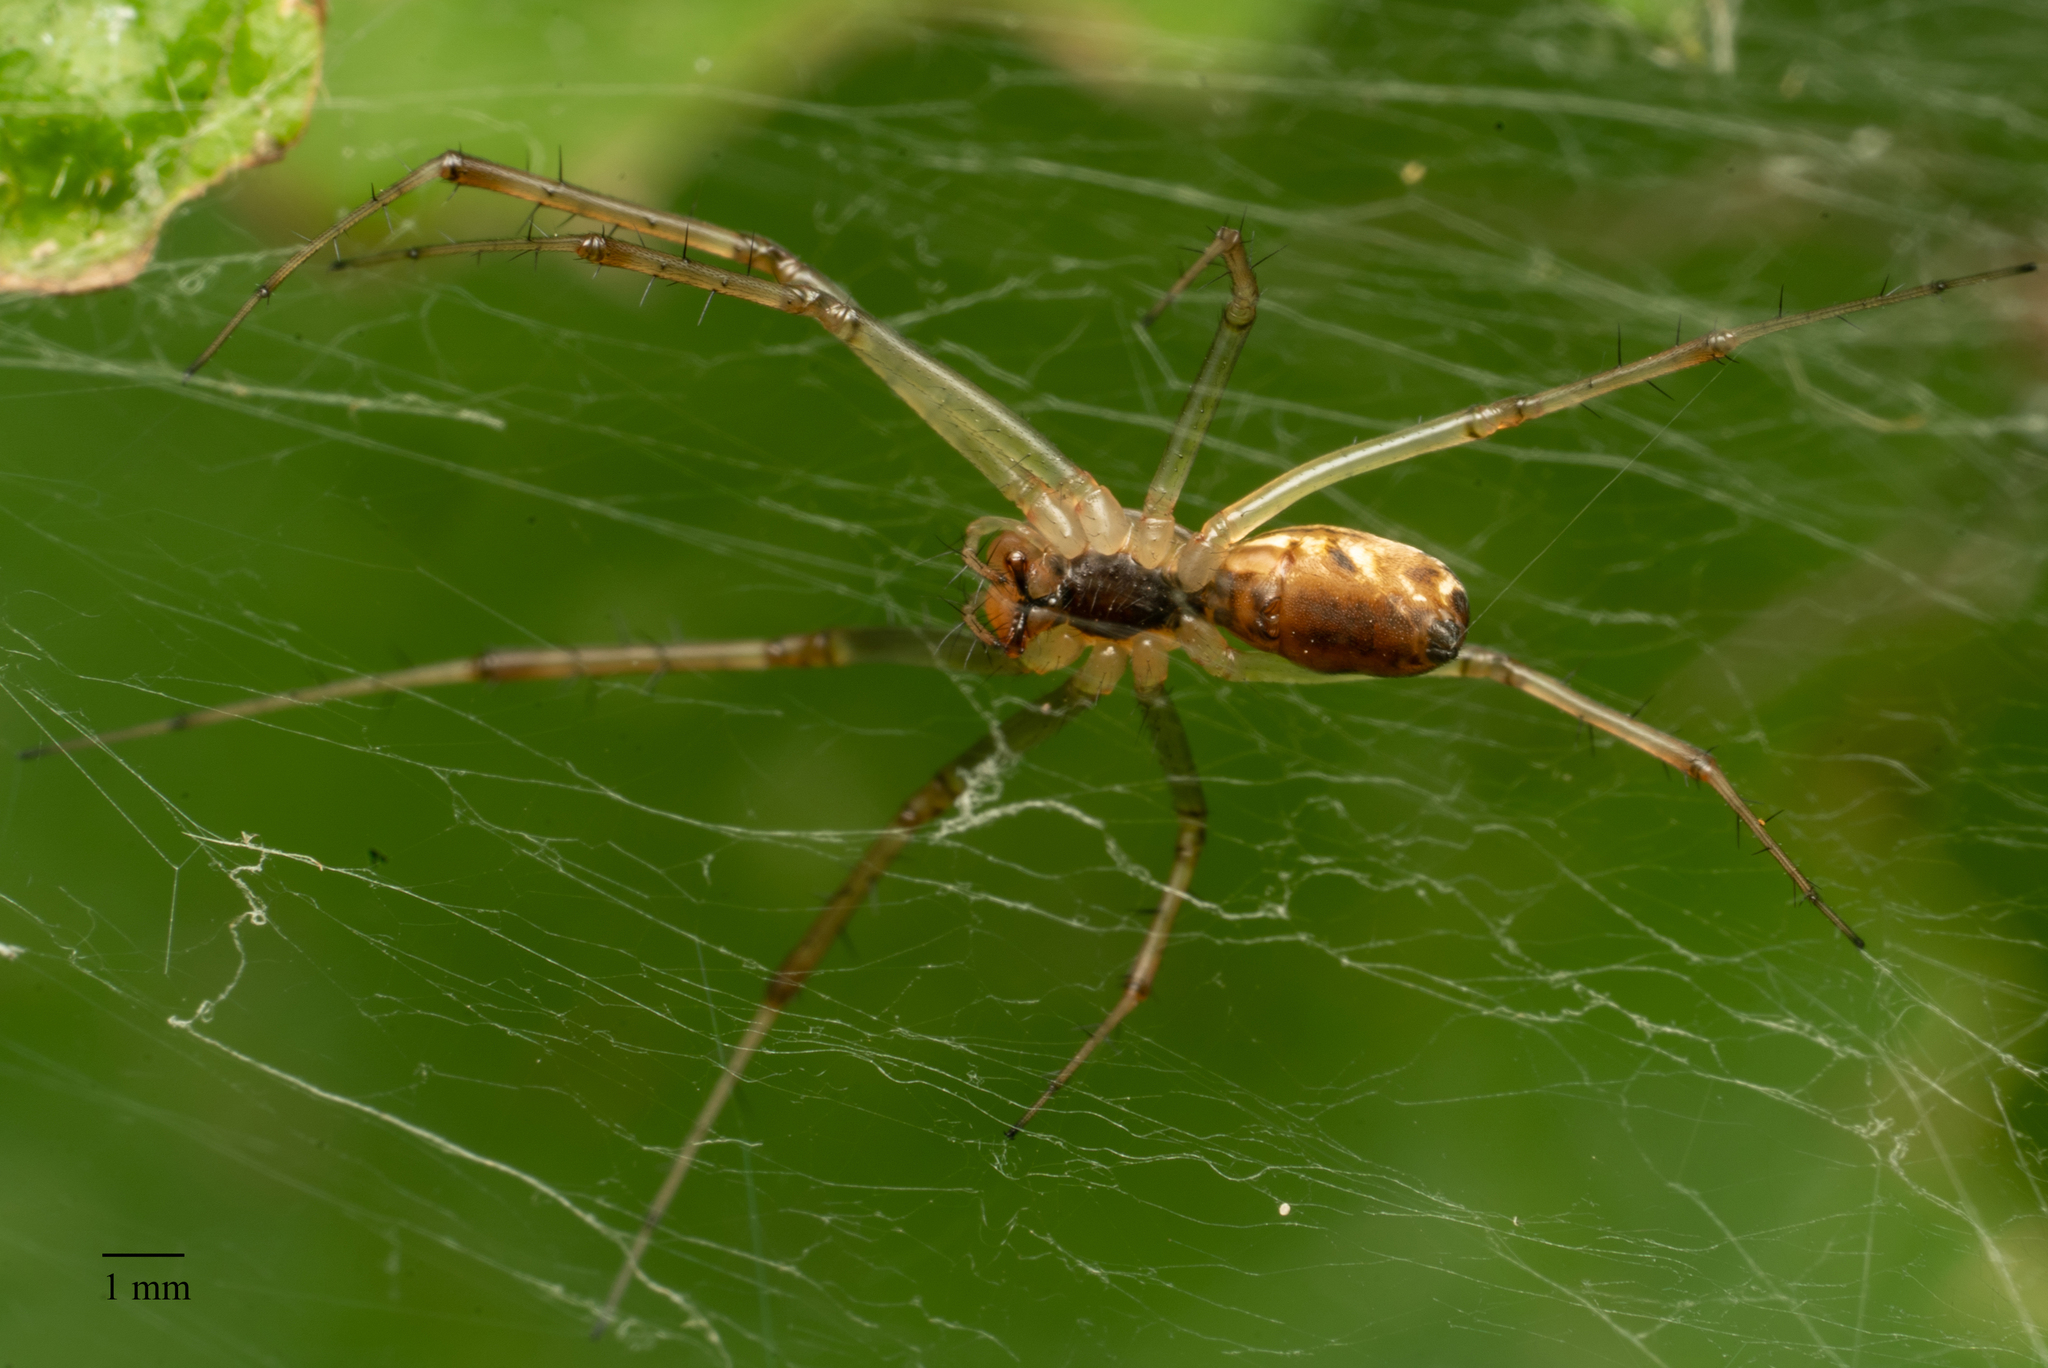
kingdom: Animalia
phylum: Arthropoda
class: Arachnida
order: Araneae
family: Linyphiidae
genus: Linyphia
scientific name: Linyphia triangularis
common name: Money spider
